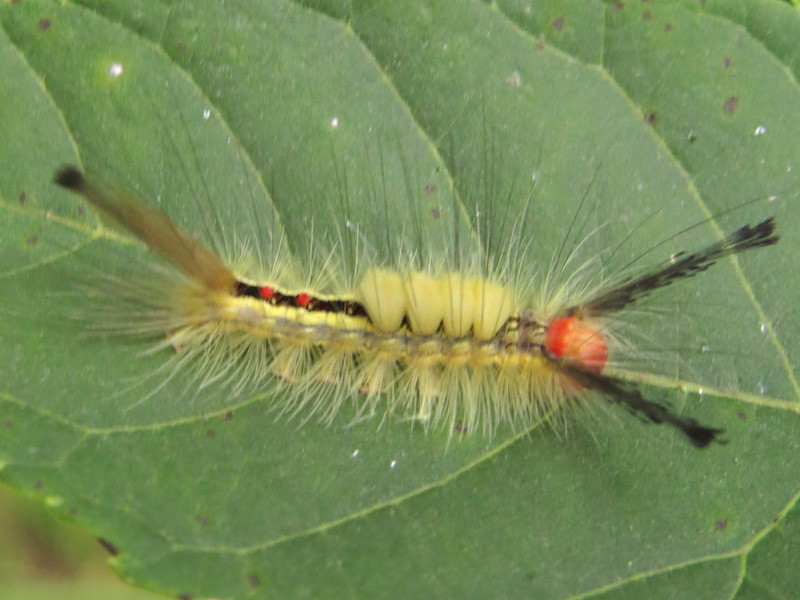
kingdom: Animalia
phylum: Arthropoda
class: Insecta
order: Lepidoptera
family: Erebidae
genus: Orgyia
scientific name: Orgyia leucostigma
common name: White-marked tussock moth
